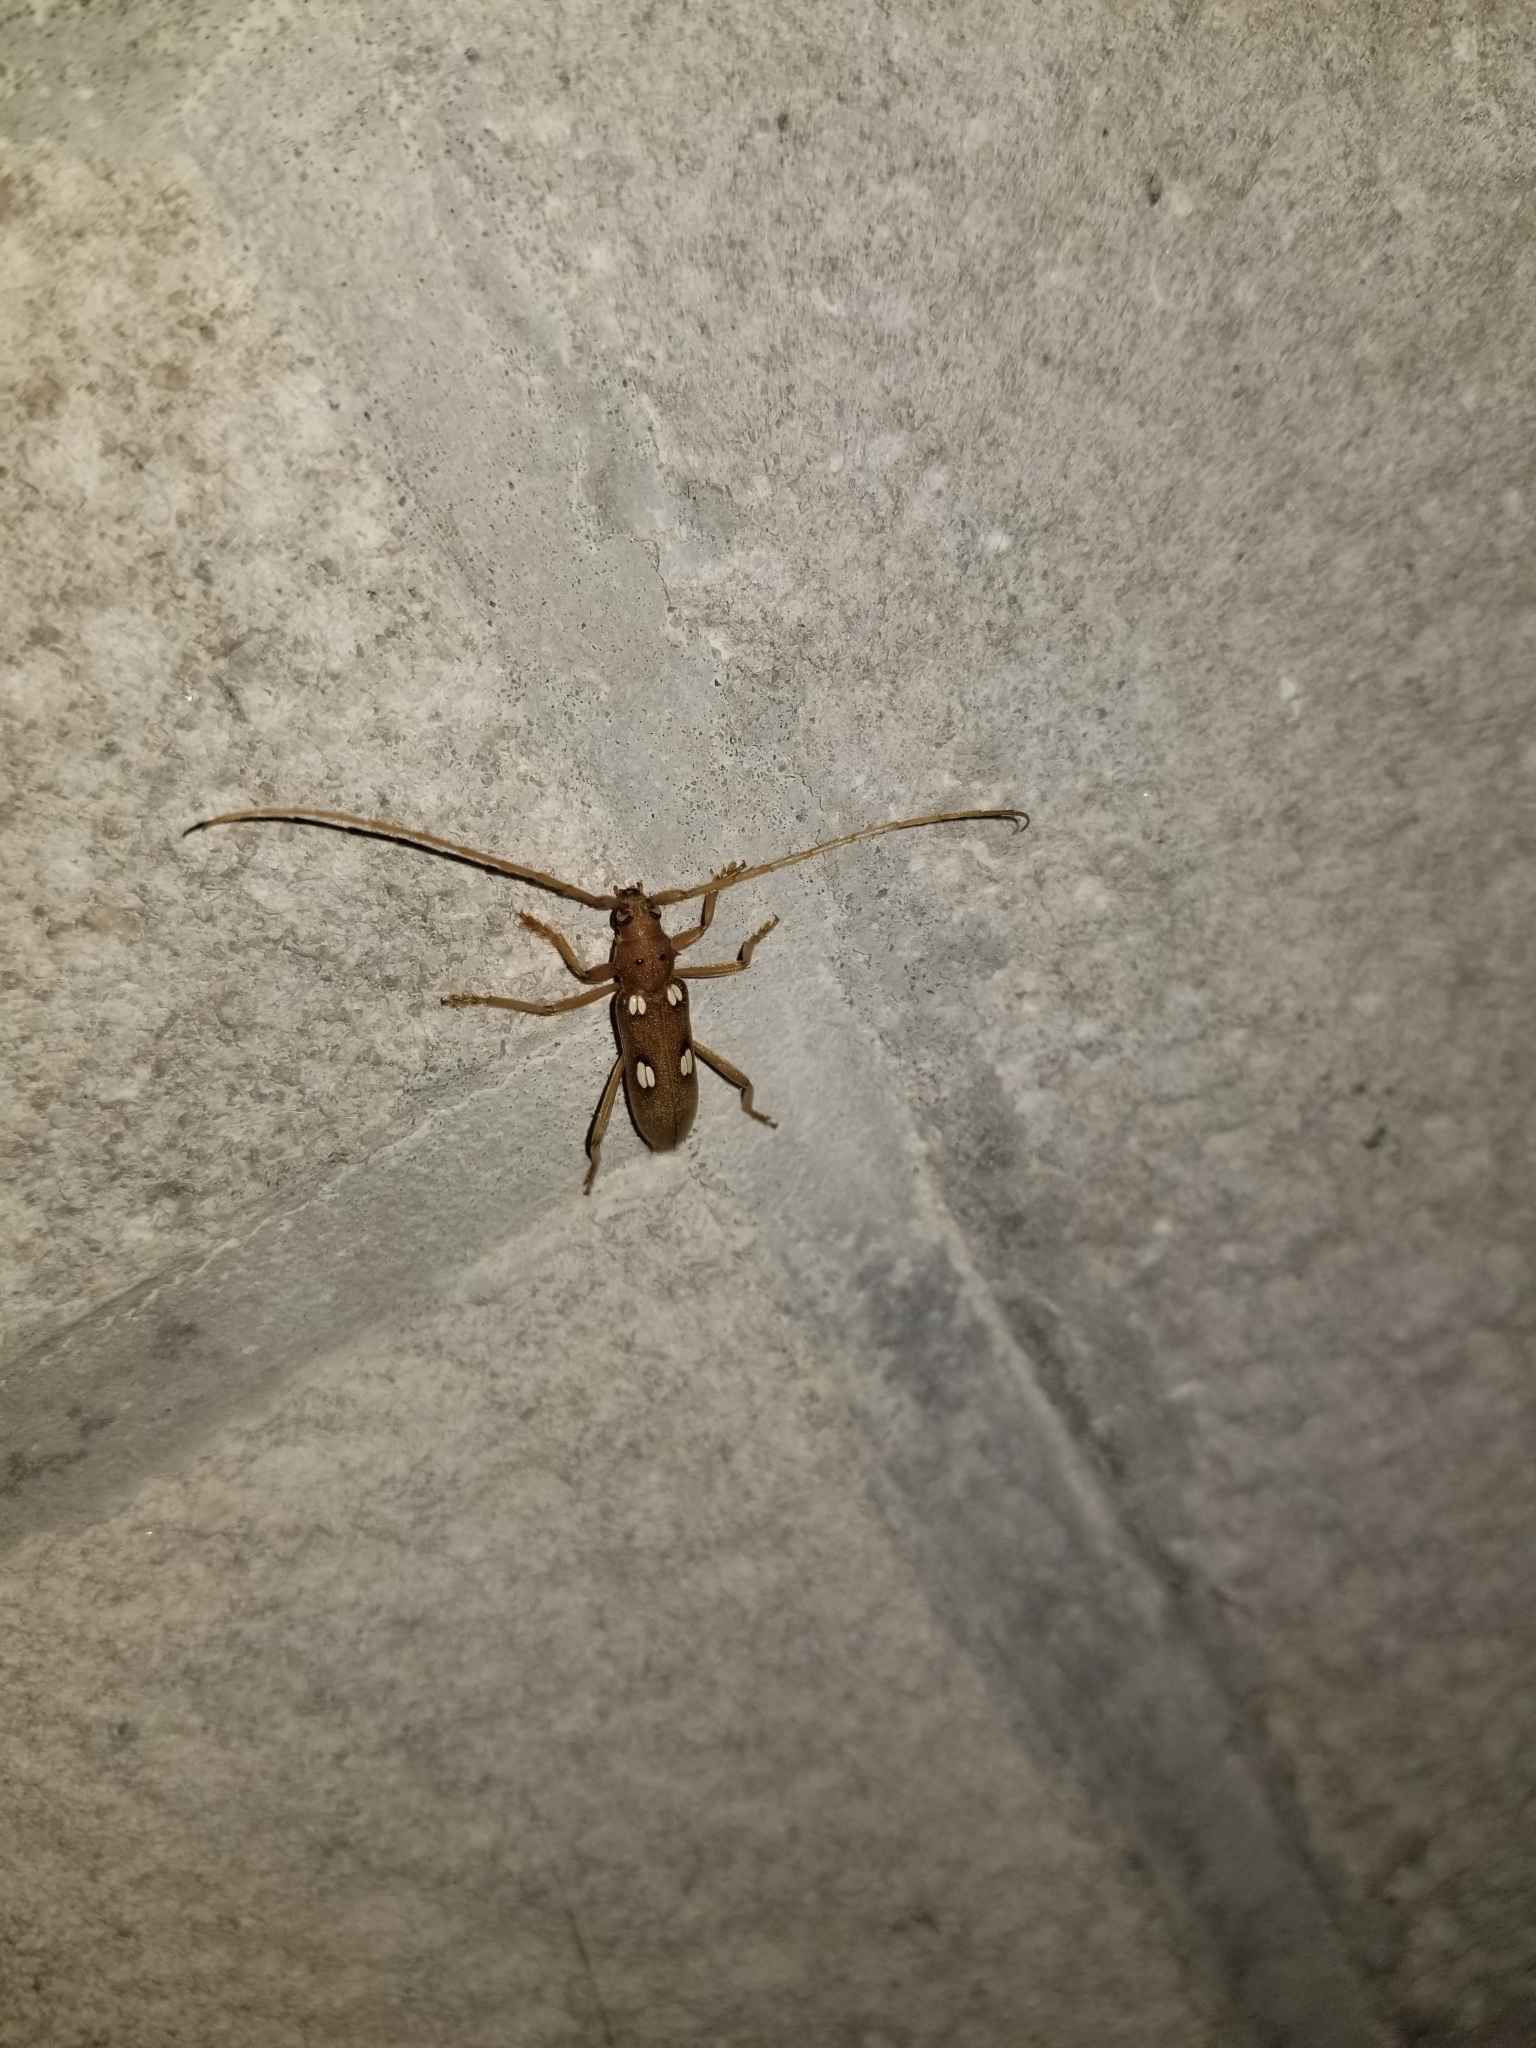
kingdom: Animalia
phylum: Arthropoda
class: Insecta
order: Coleoptera
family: Cerambycidae
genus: Eburia
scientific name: Eburia quadrigeminata
